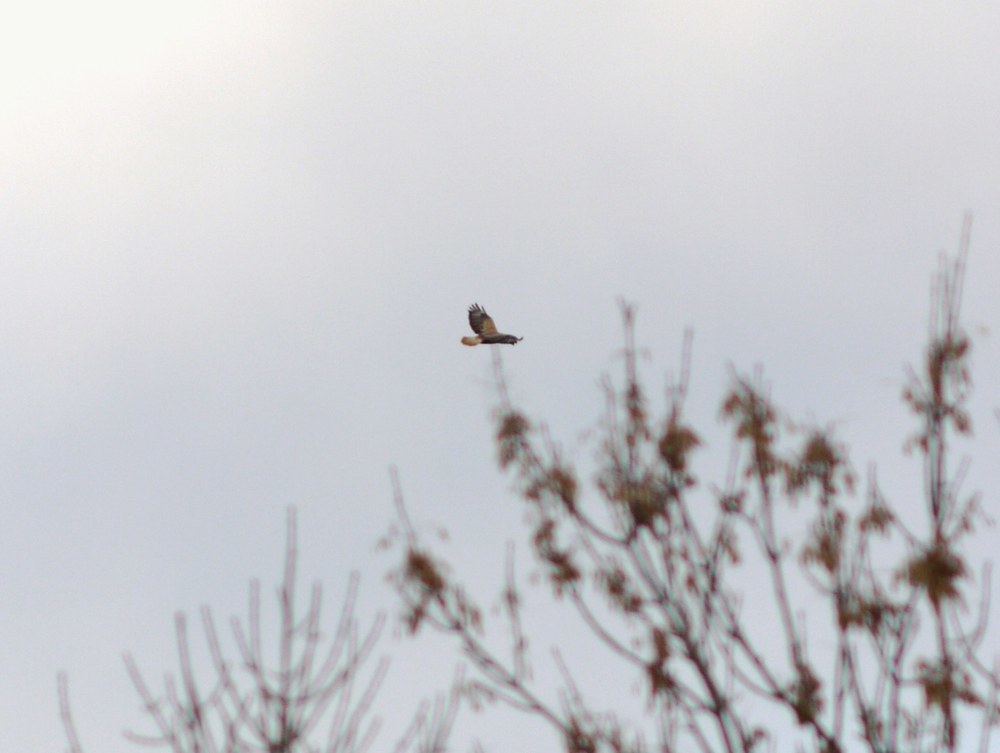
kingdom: Animalia
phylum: Chordata
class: Aves
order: Accipitriformes
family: Accipitridae
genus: Buteo
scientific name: Buteo rufinus
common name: Long-legged buzzard
